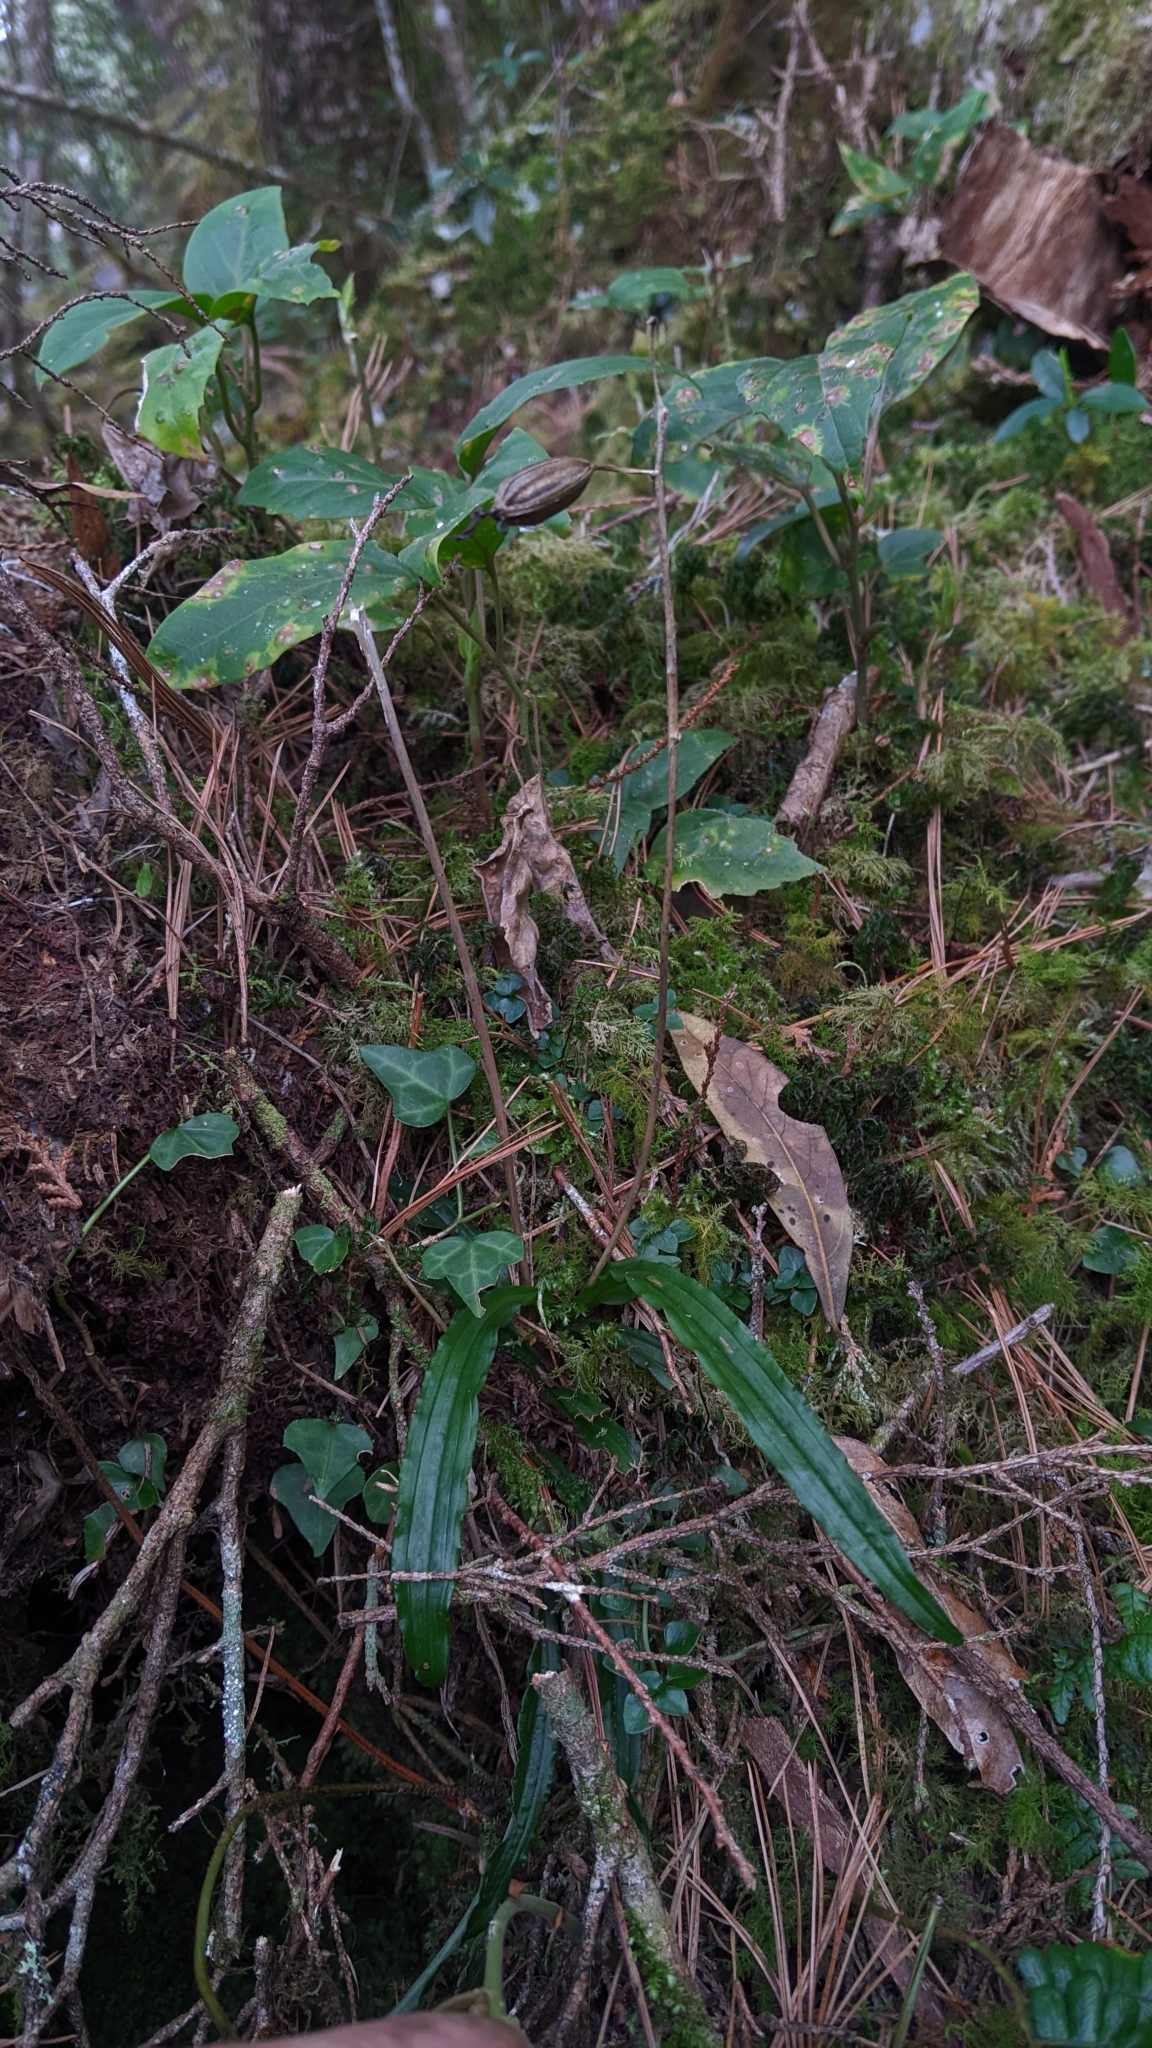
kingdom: Plantae
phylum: Tracheophyta
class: Liliopsida
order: Asparagales
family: Orchidaceae
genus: Calanthe
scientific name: Calanthe arcuata
